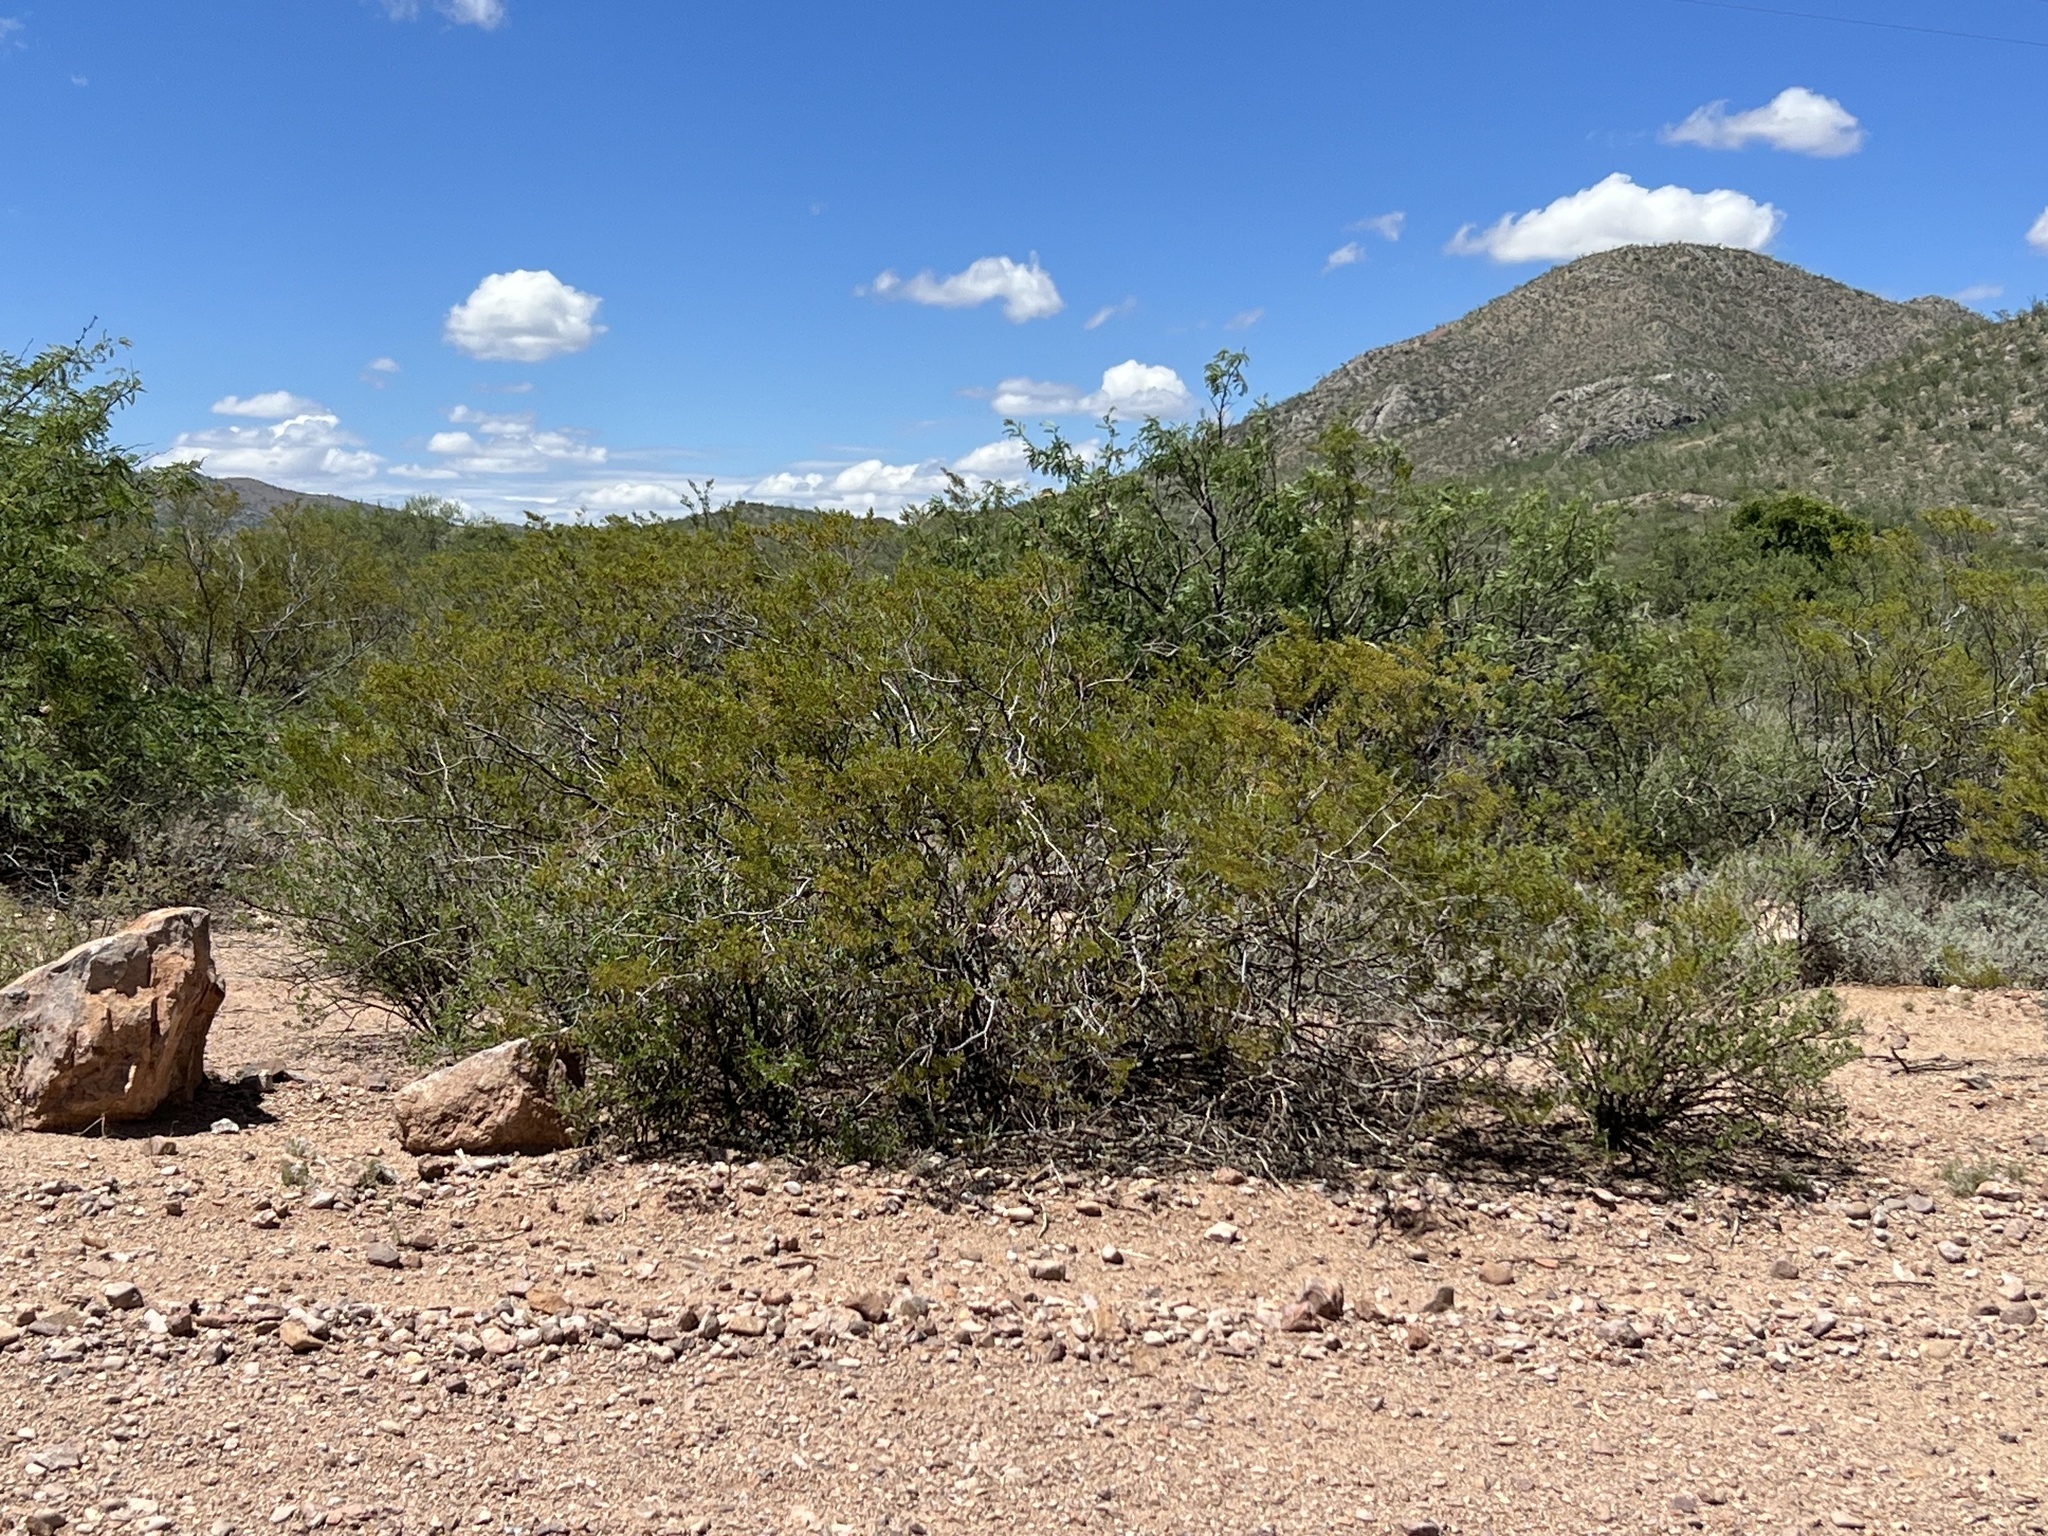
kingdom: Plantae
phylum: Tracheophyta
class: Magnoliopsida
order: Zygophyllales
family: Zygophyllaceae
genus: Larrea
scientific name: Larrea tridentata
